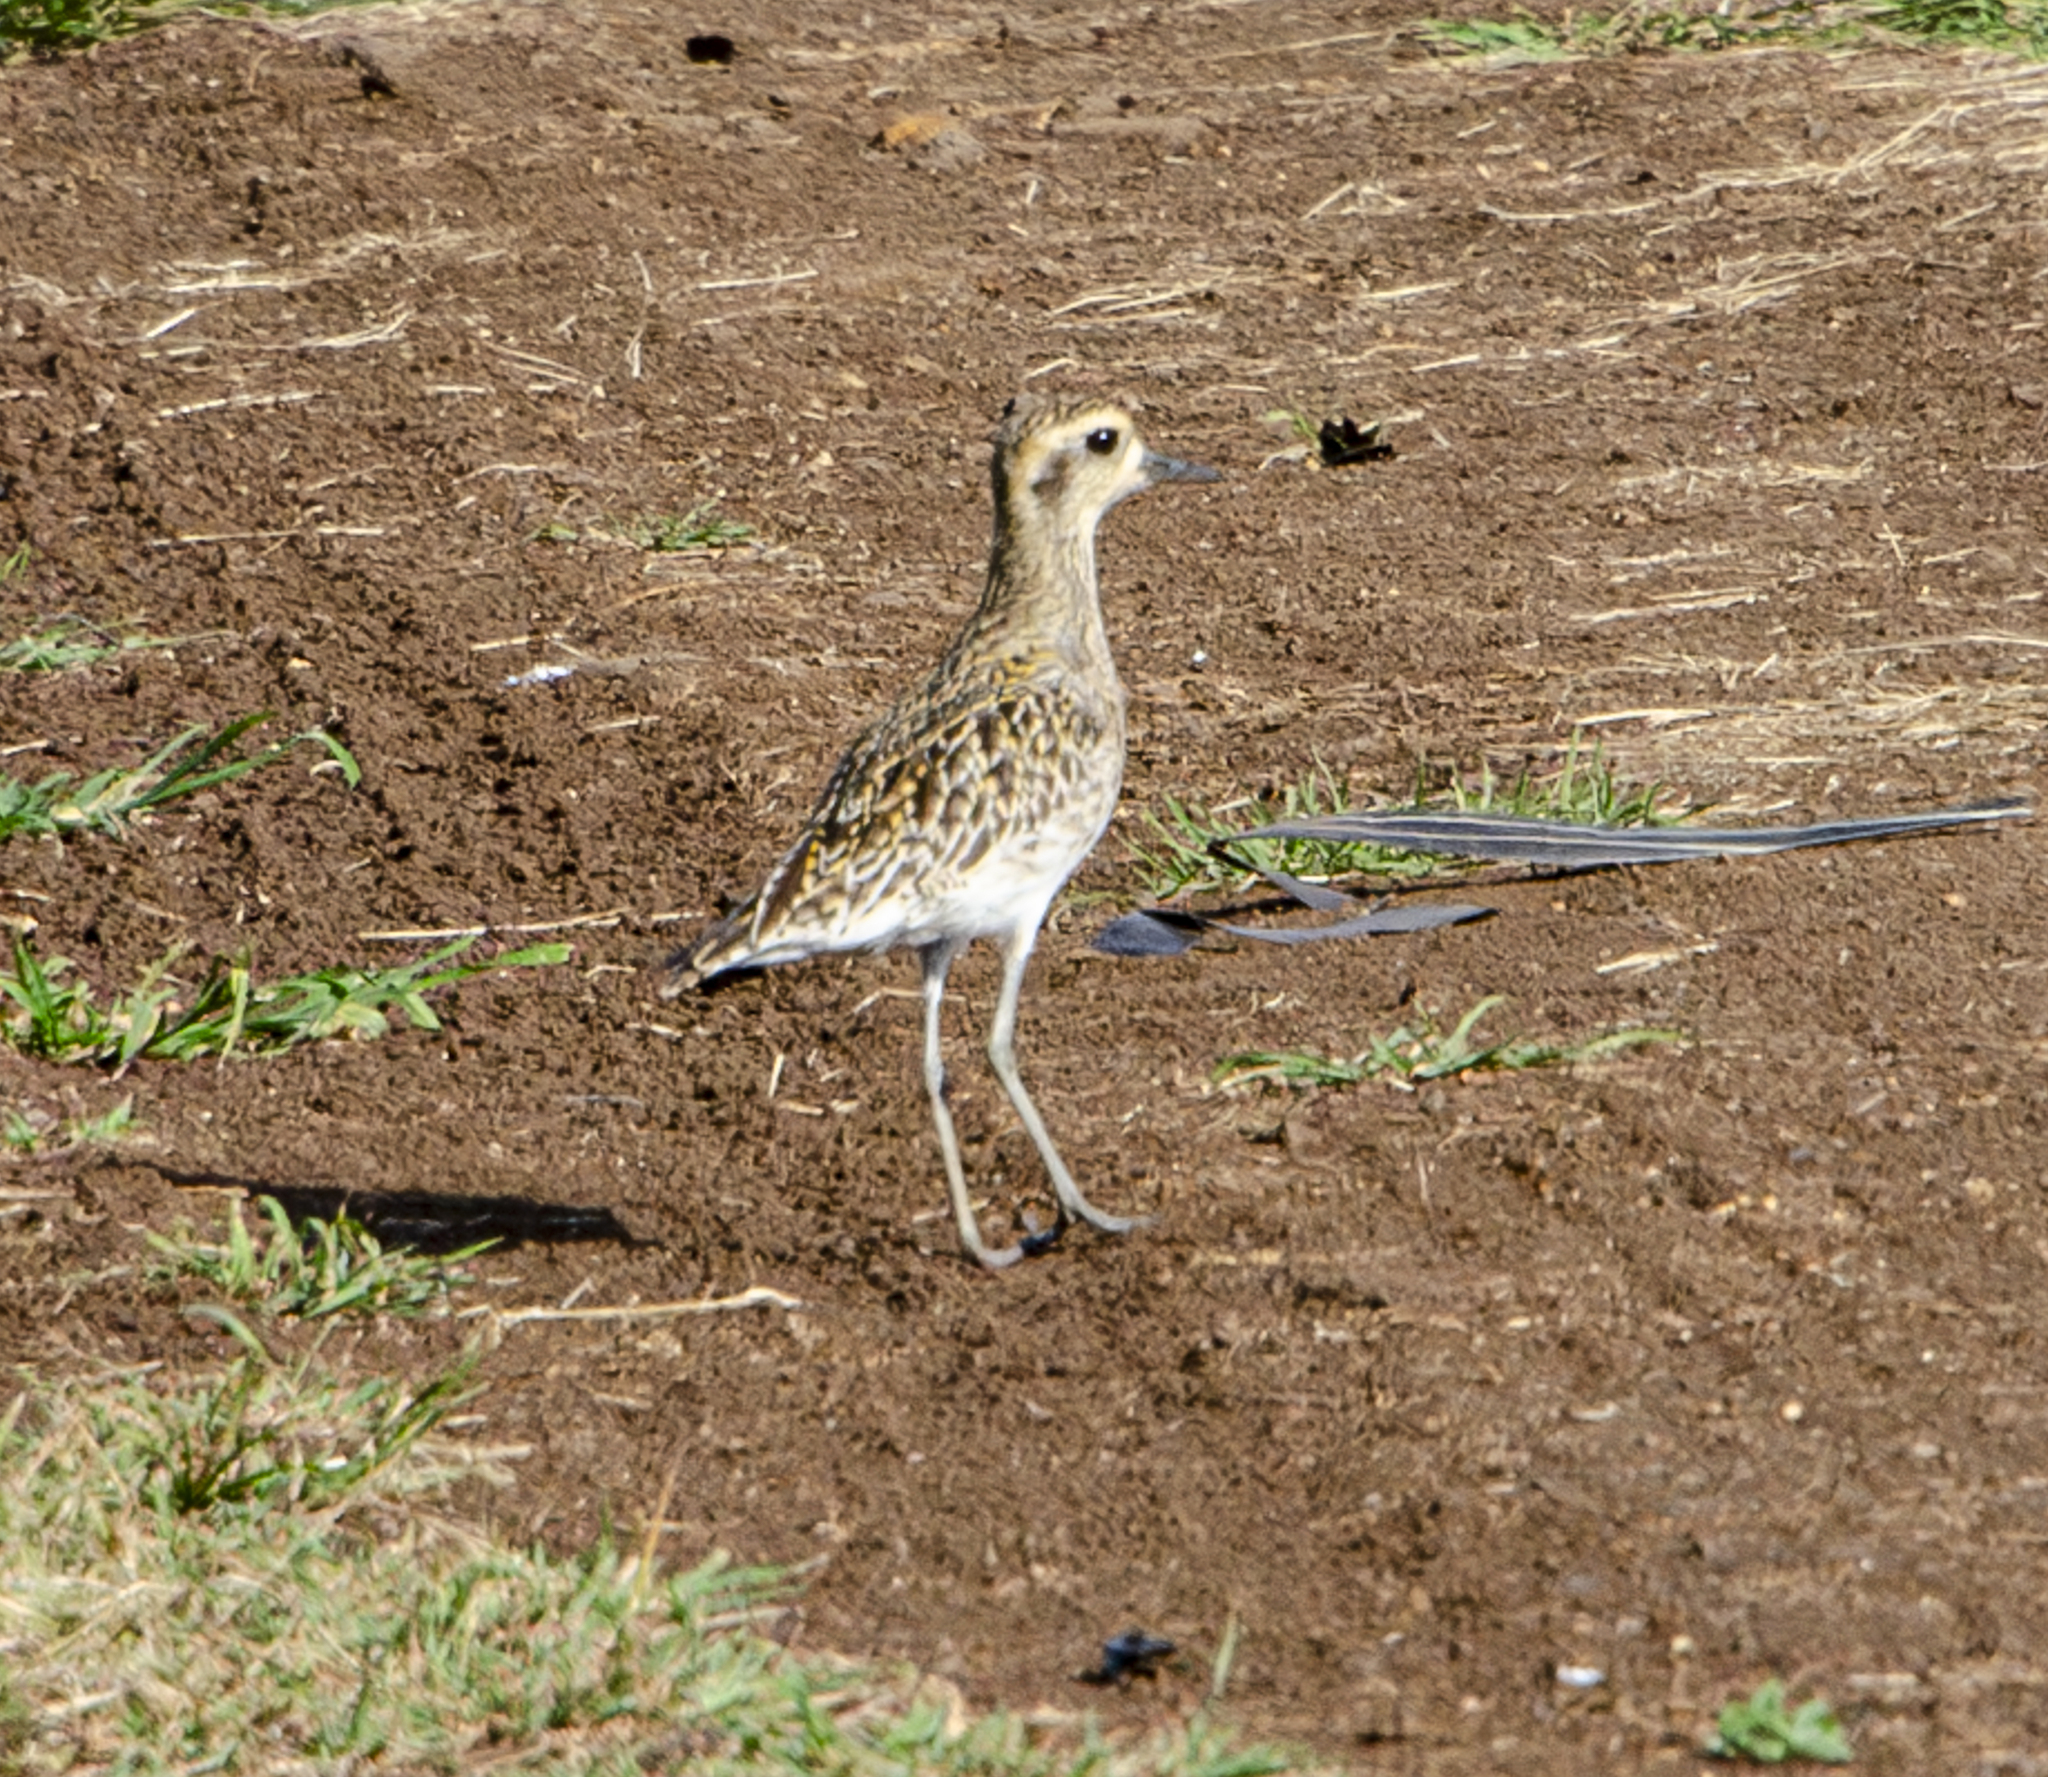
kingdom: Animalia
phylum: Chordata
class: Aves
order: Charadriiformes
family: Charadriidae
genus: Pluvialis
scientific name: Pluvialis fulva
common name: Pacific golden plover
